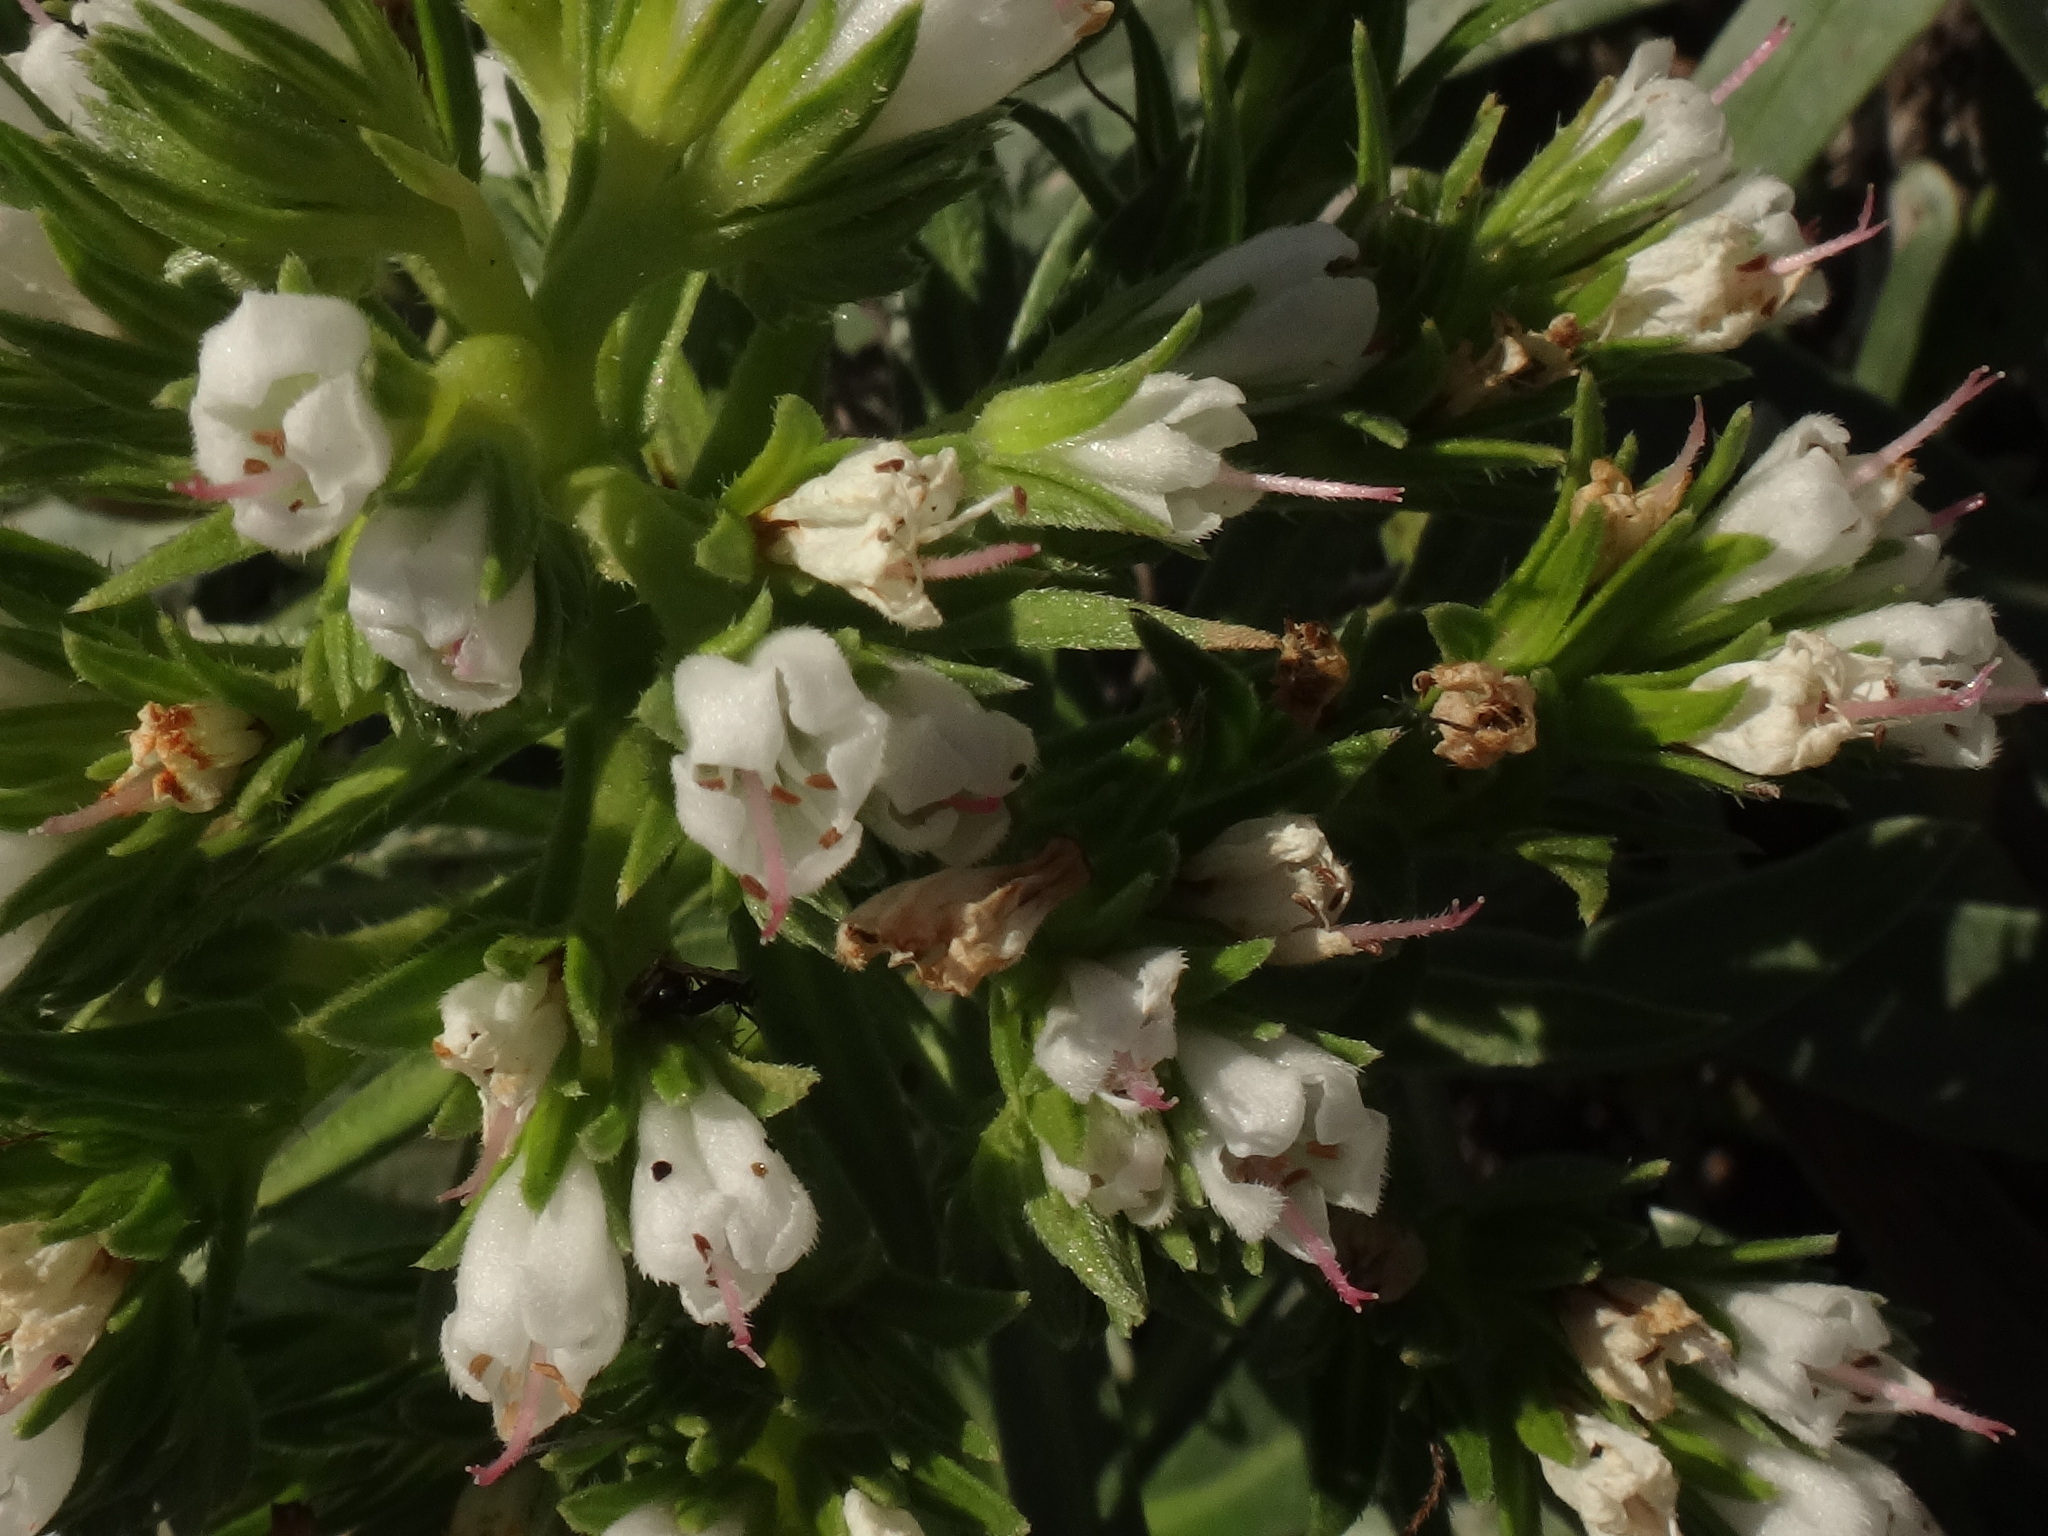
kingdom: Plantae
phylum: Tracheophyta
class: Magnoliopsida
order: Boraginales
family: Boraginaceae
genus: Echium
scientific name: Echium brevirame
